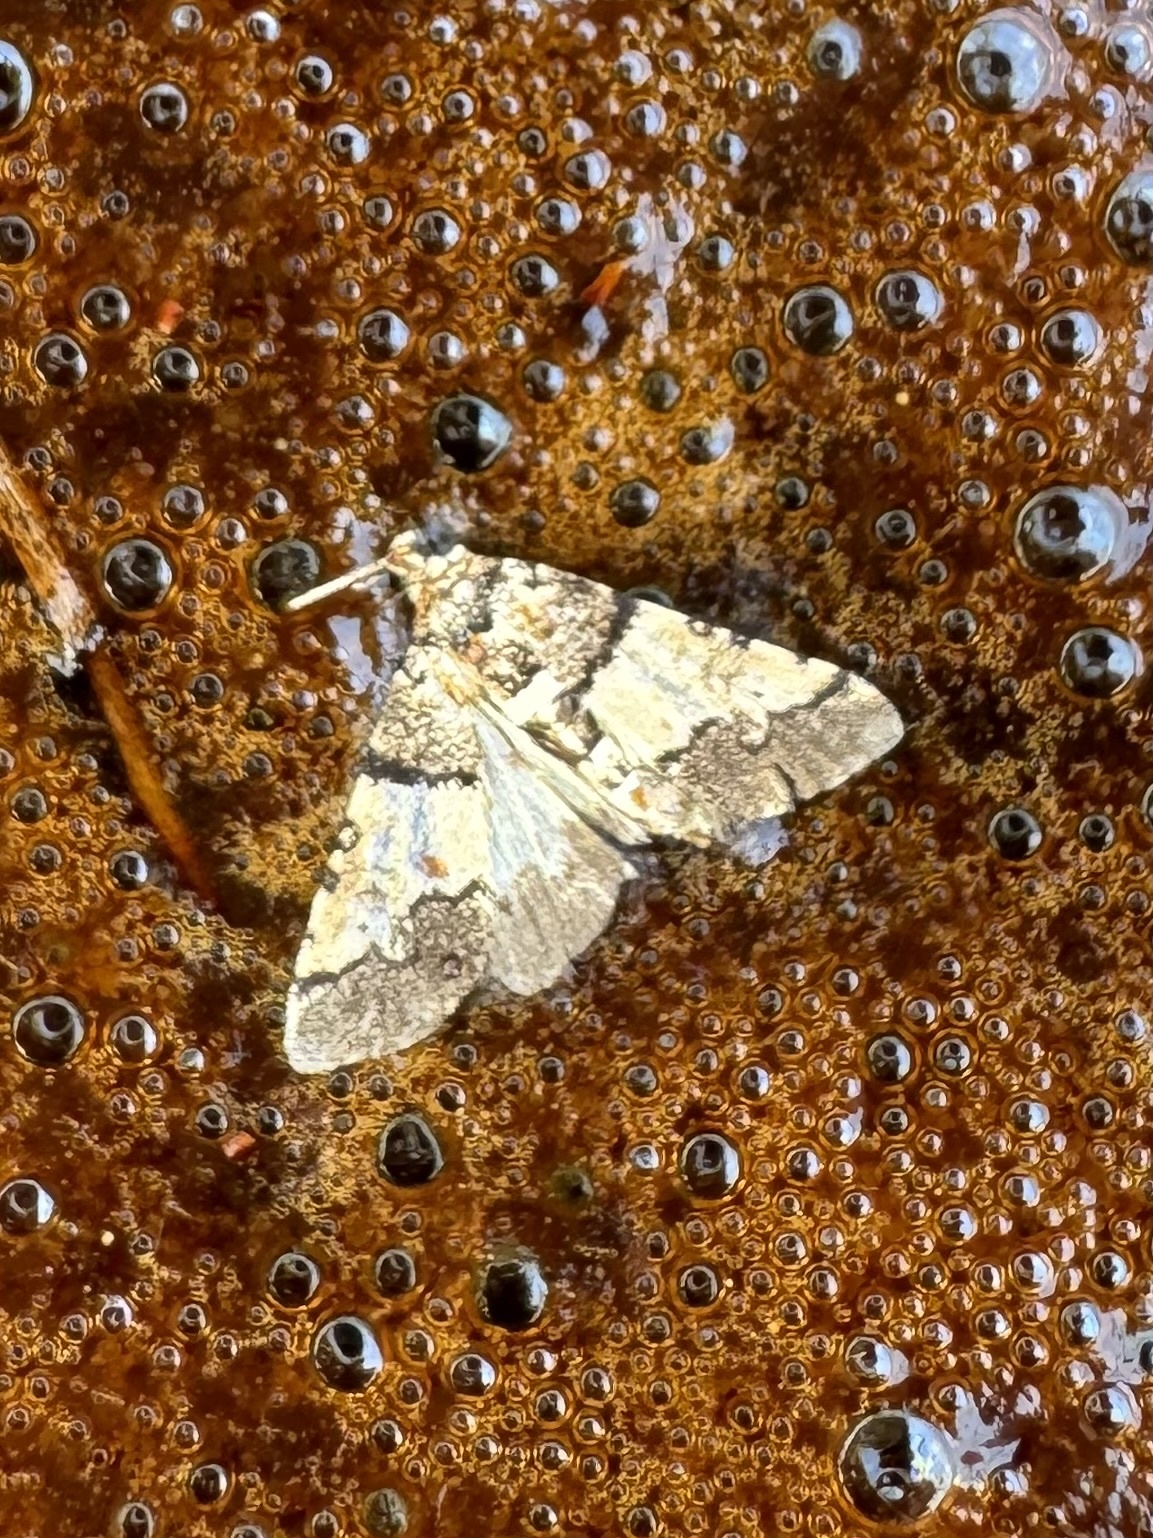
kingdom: Animalia
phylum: Arthropoda
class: Insecta
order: Lepidoptera
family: Crambidae
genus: Nacoleia
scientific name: Nacoleia mesochlora
